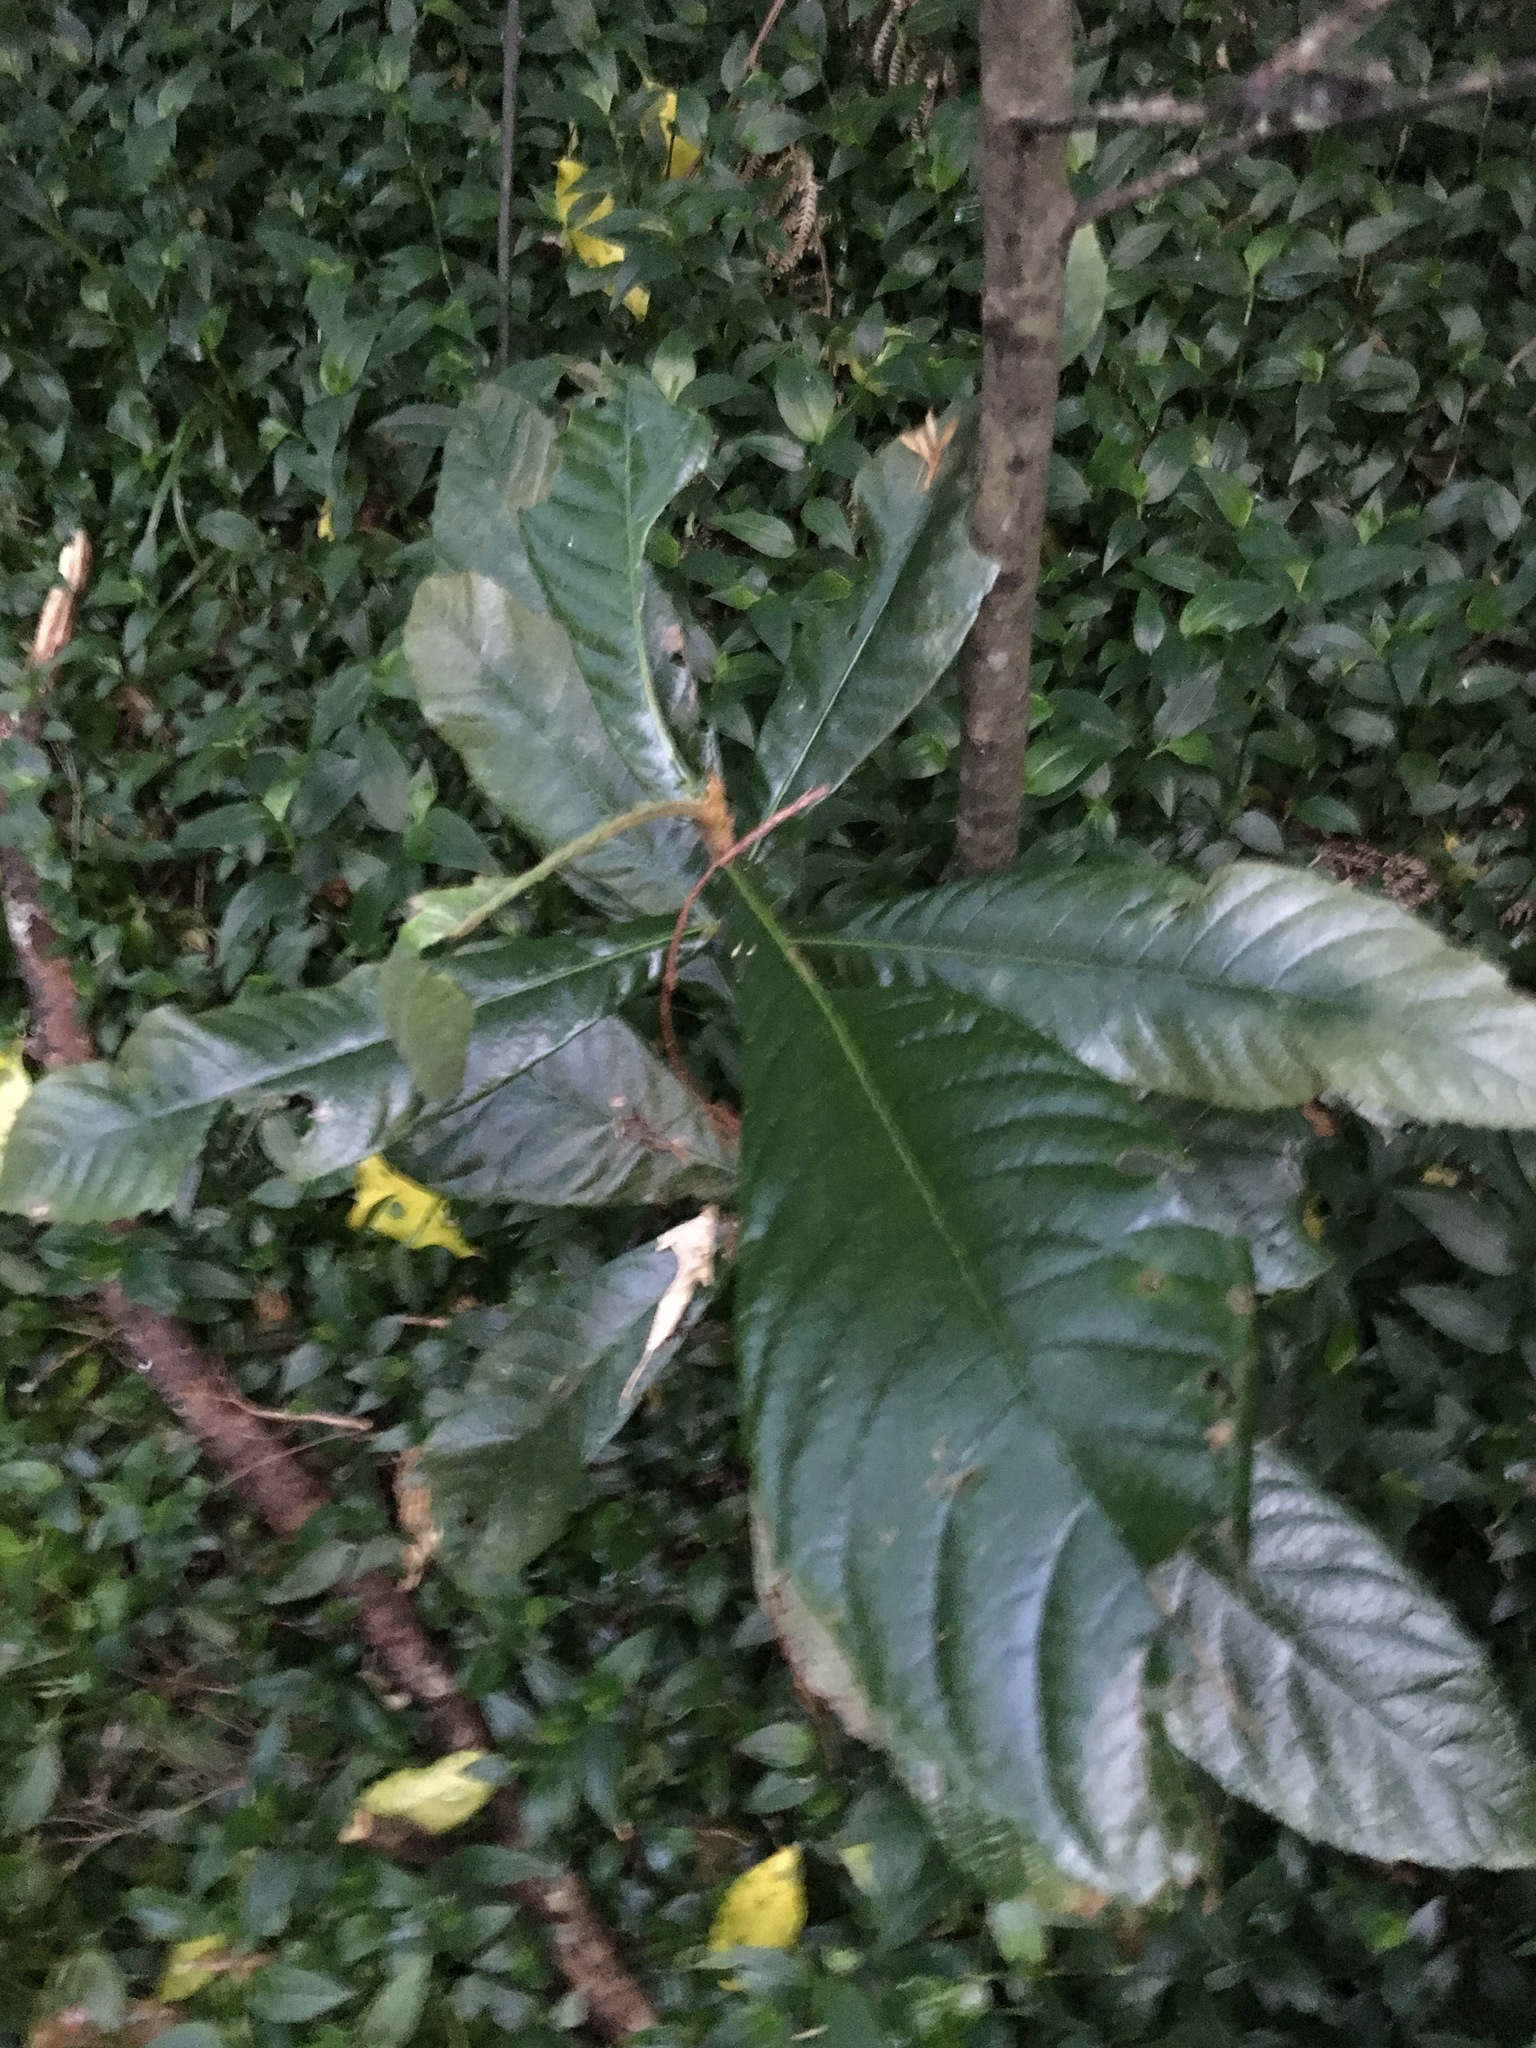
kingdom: Plantae
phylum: Tracheophyta
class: Magnoliopsida
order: Rosales
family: Rosaceae
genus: Rhaphiolepis
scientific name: Rhaphiolepis bibas
